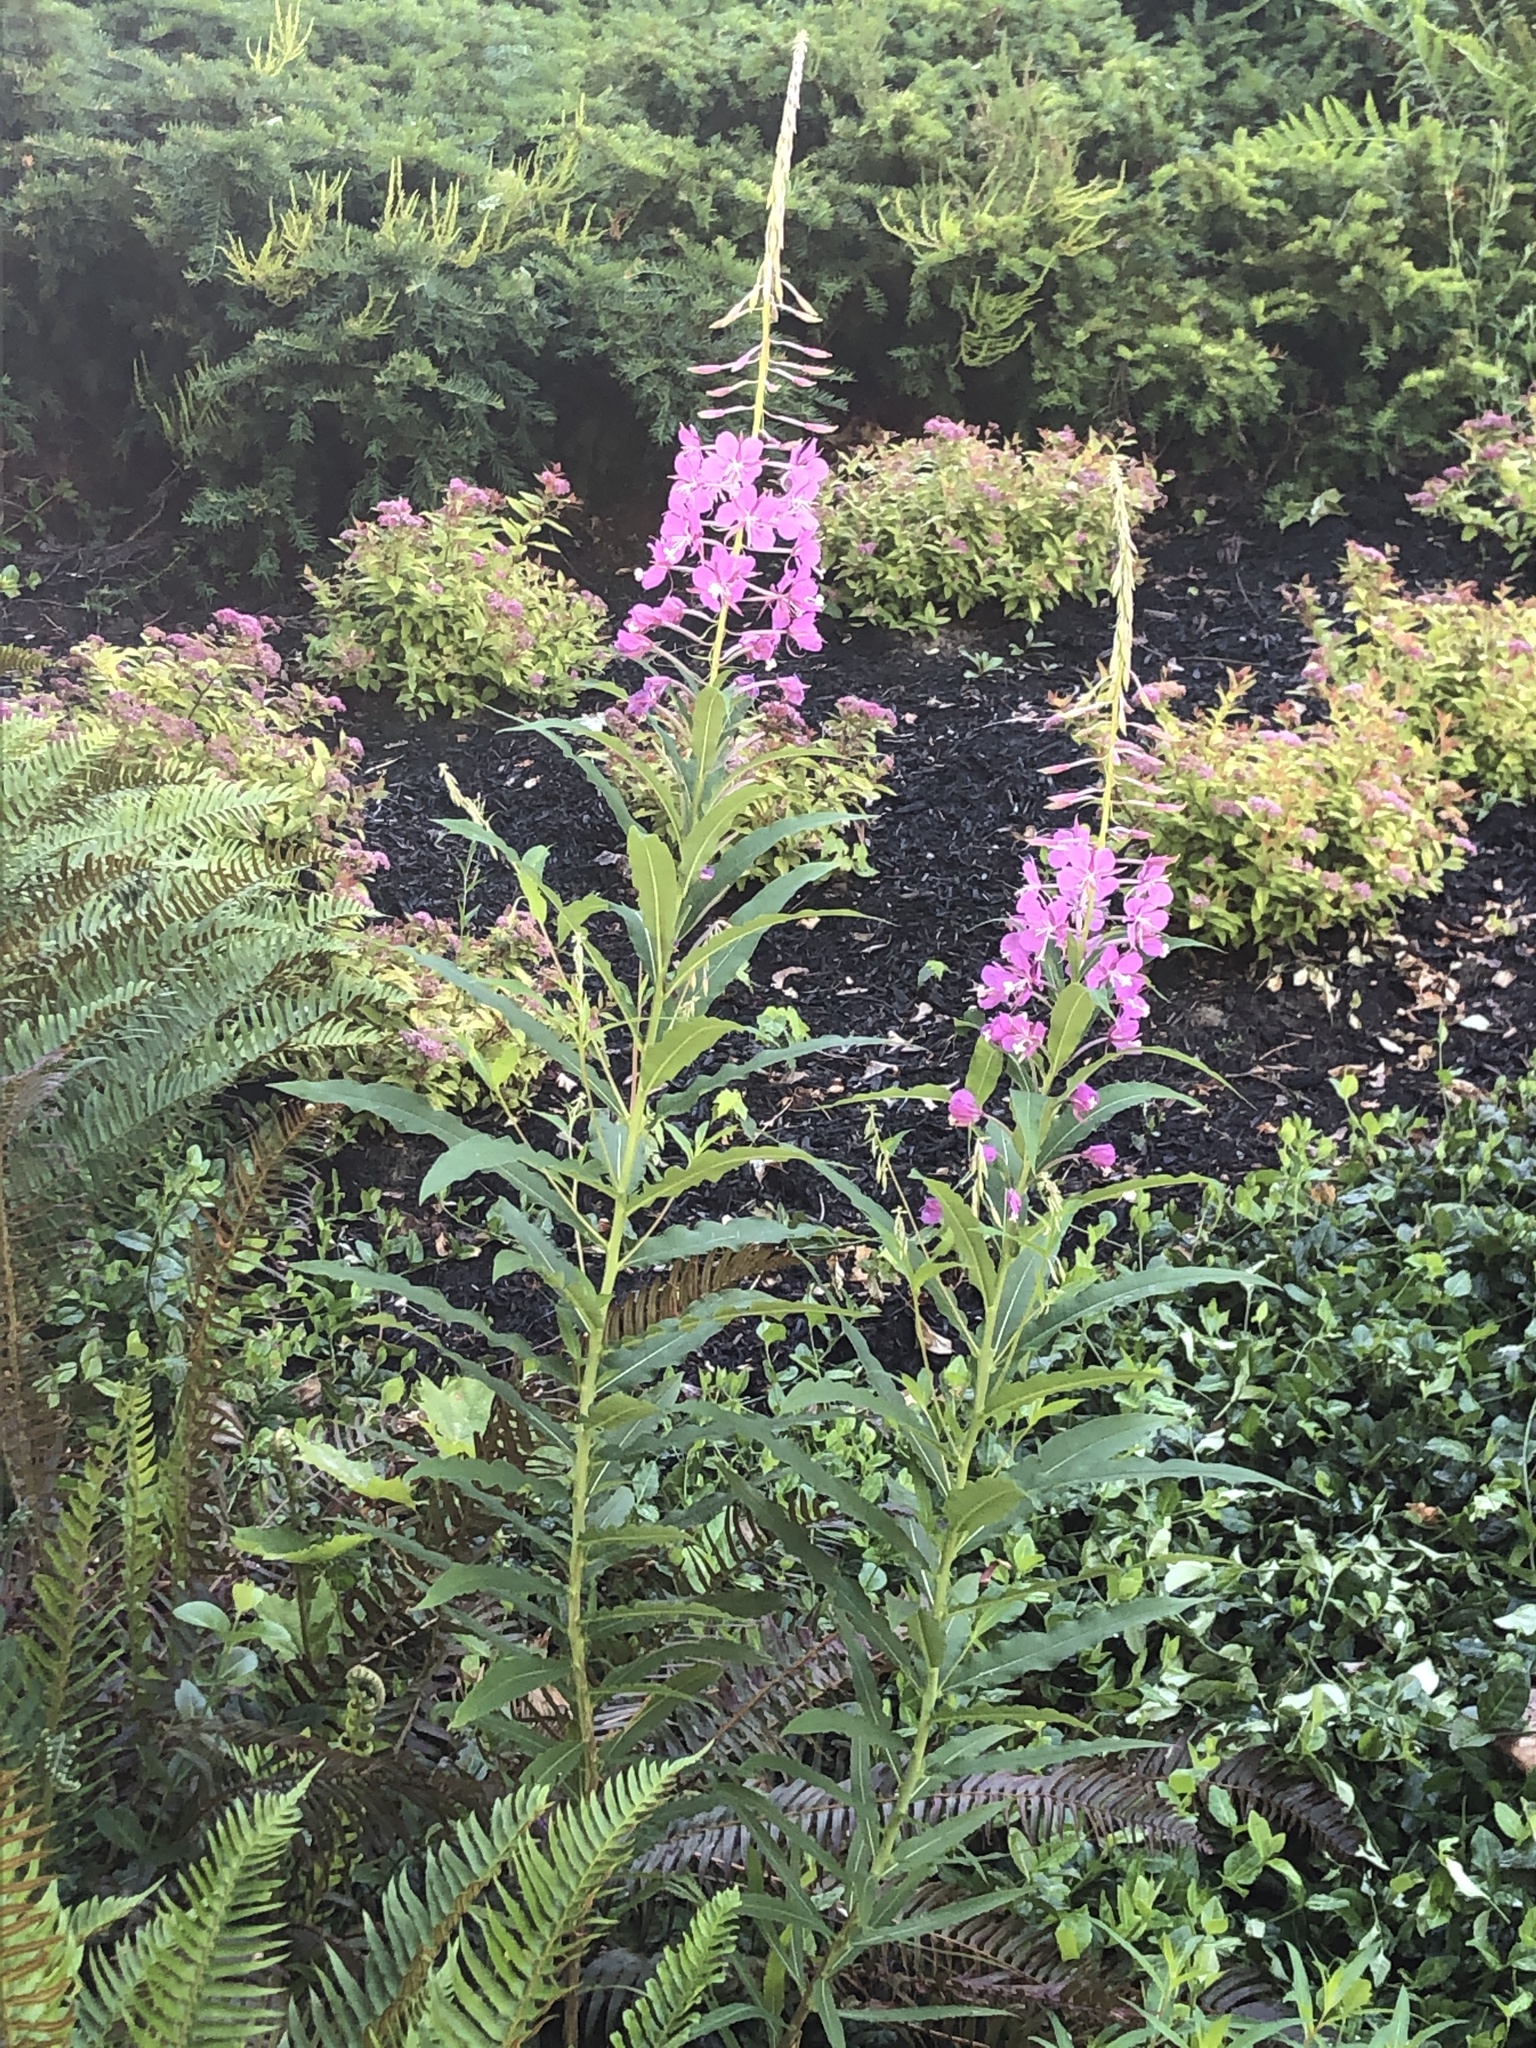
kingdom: Plantae
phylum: Tracheophyta
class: Magnoliopsida
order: Myrtales
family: Onagraceae
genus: Chamaenerion
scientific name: Chamaenerion angustifolium
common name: Fireweed
